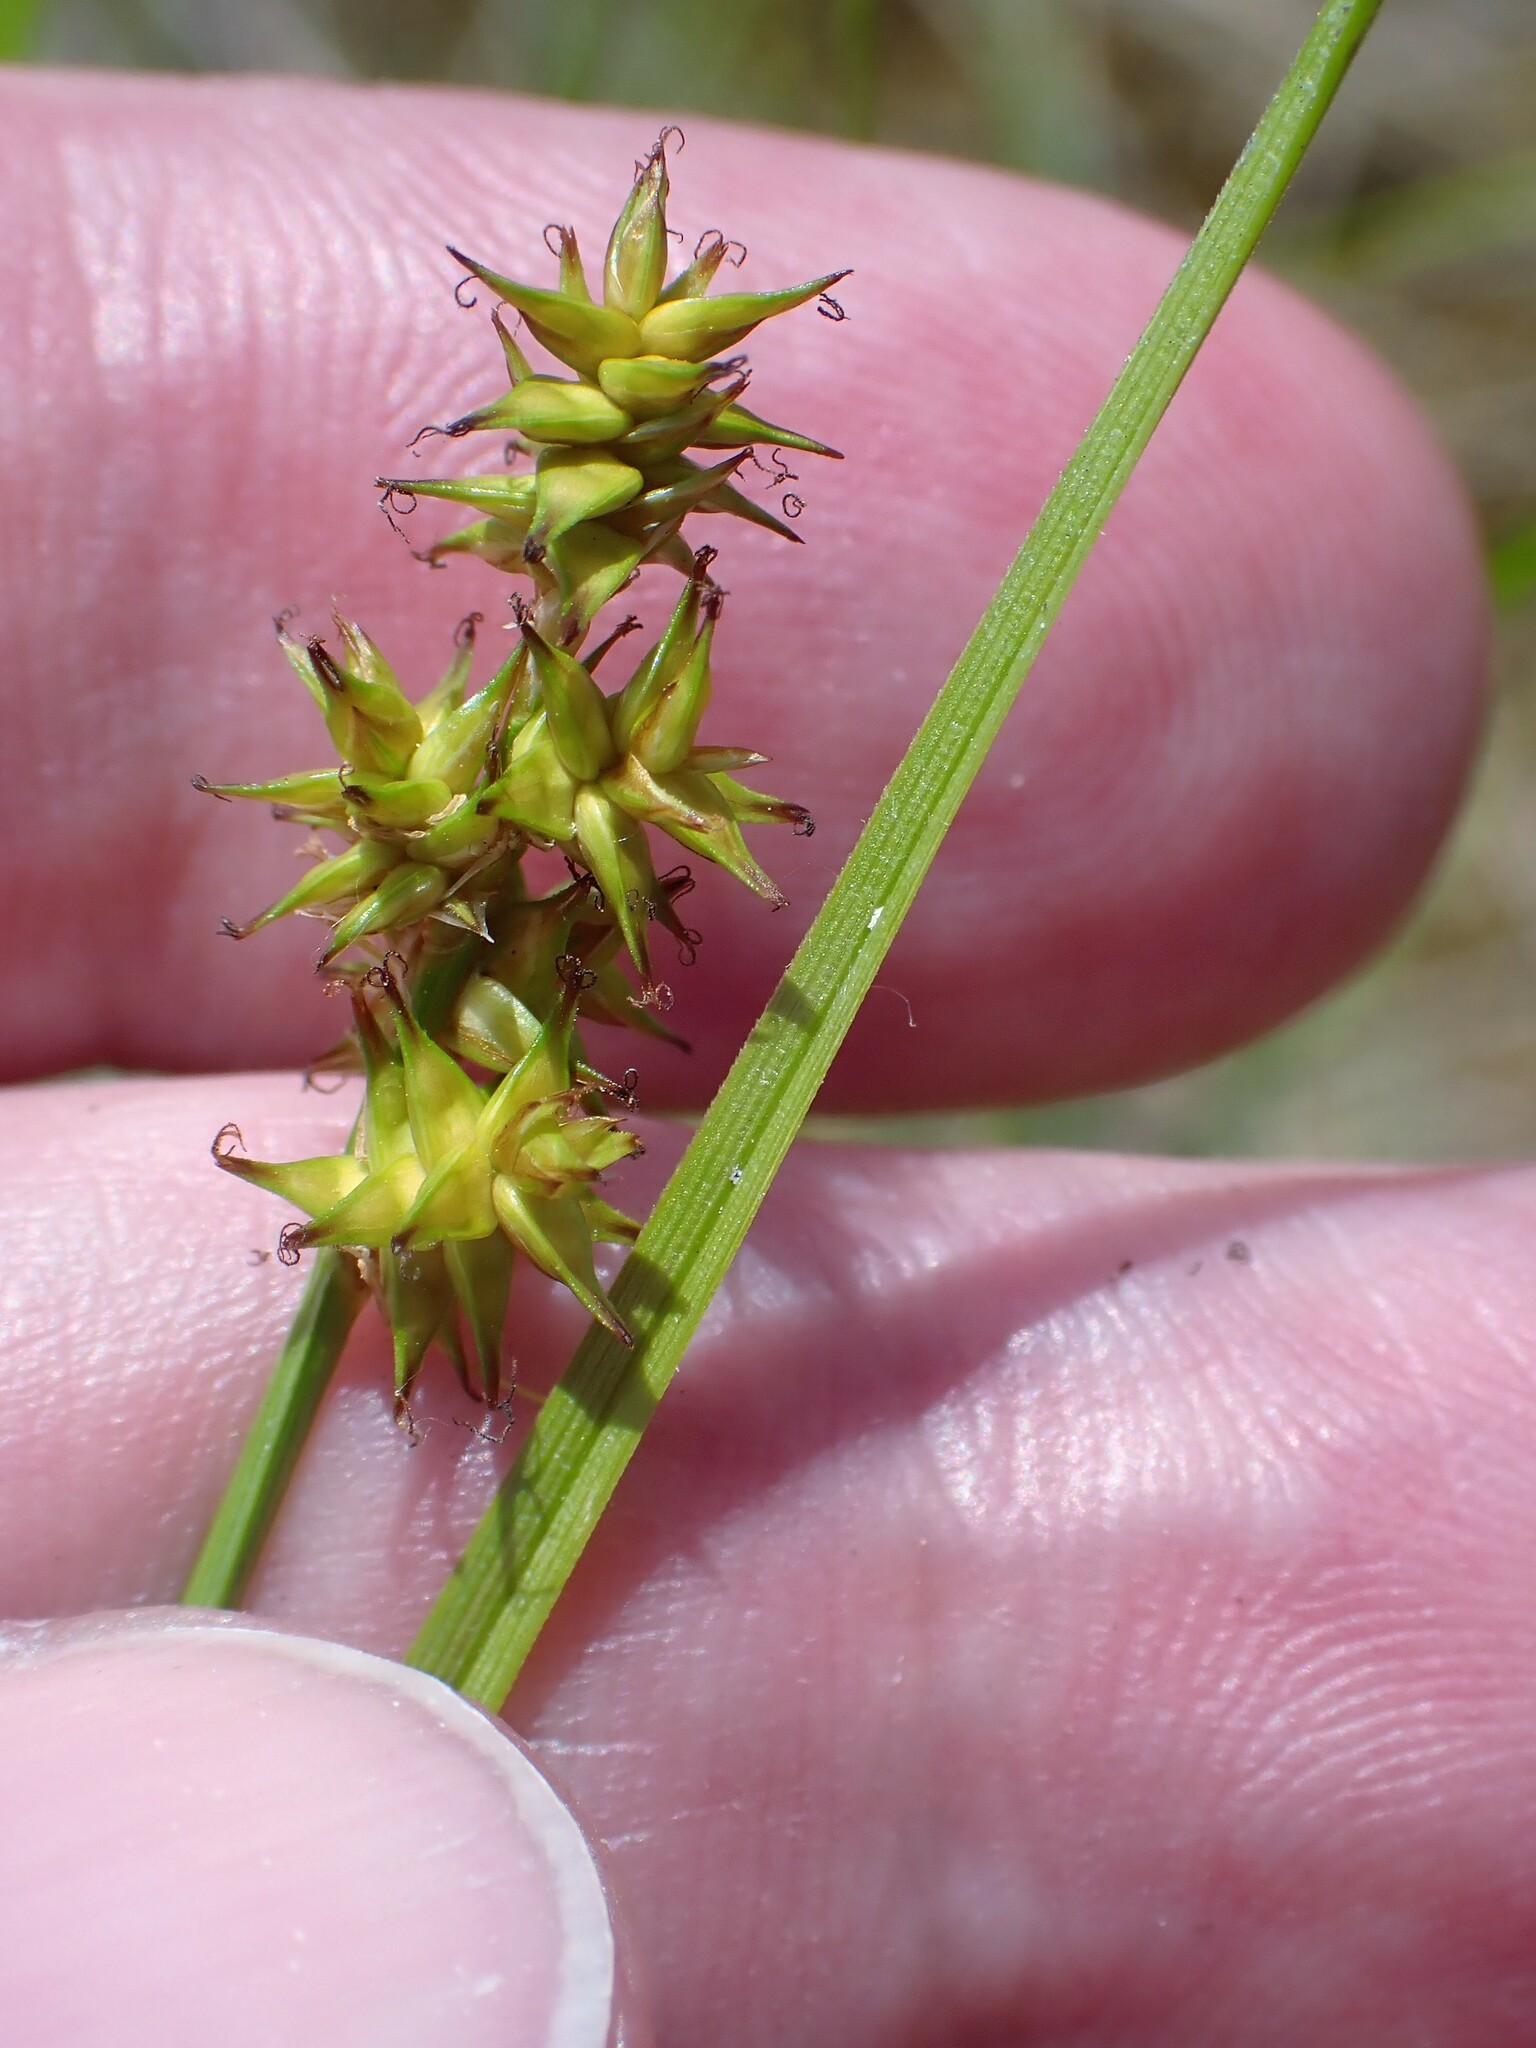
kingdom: Plantae
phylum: Tracheophyta
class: Liliopsida
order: Poales
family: Cyperaceae
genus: Carex
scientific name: Carex echinata
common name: Star sedge
